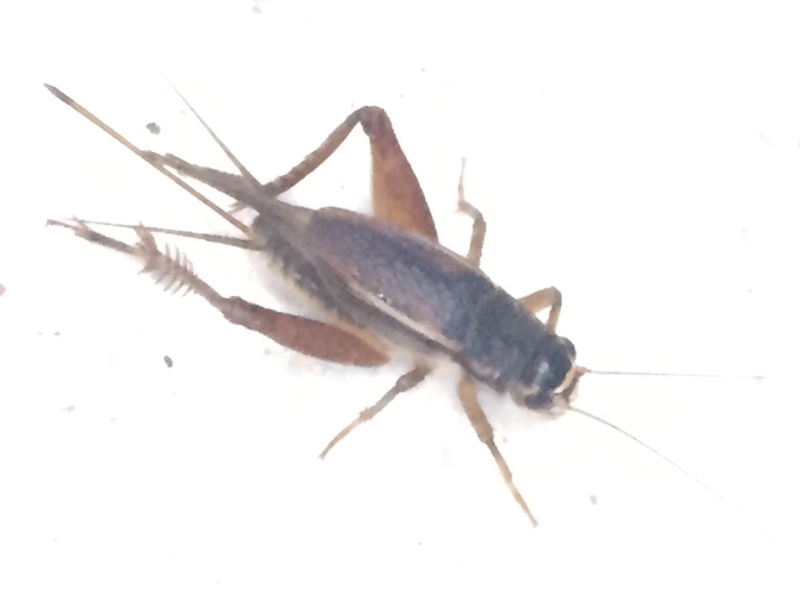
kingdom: Animalia
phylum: Arthropoda
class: Insecta
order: Orthoptera
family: Gryllidae
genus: Gryllus
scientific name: Gryllus assimilis
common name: Jamaican field cricket
